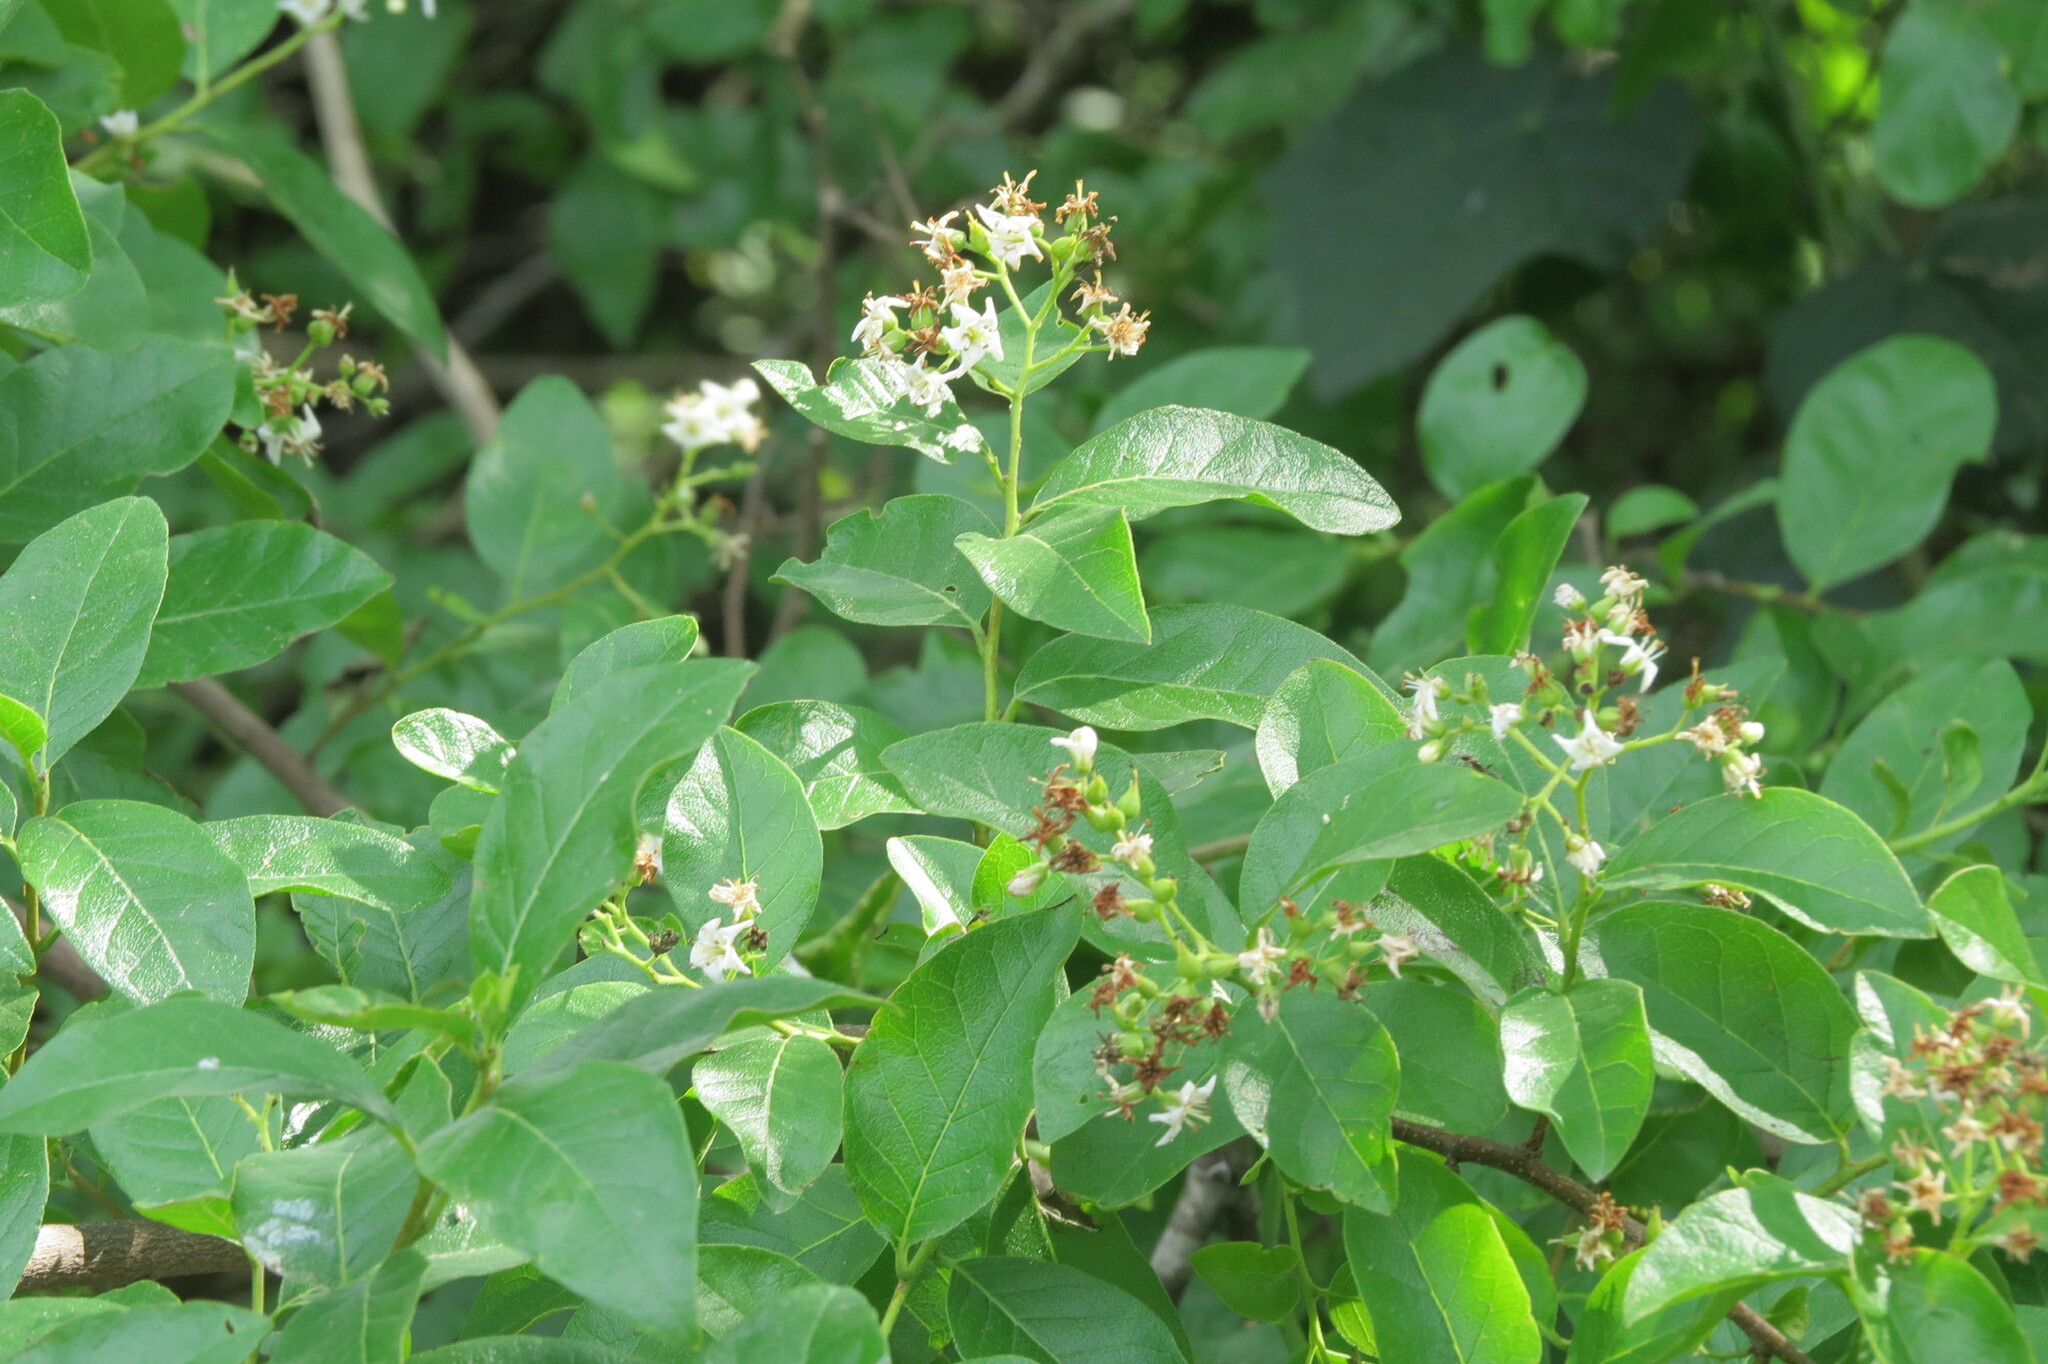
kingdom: Plantae
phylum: Tracheophyta
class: Magnoliopsida
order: Boraginales
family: Ehretiaceae
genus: Ehretia
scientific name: Ehretia anacua
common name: Sugarberry
